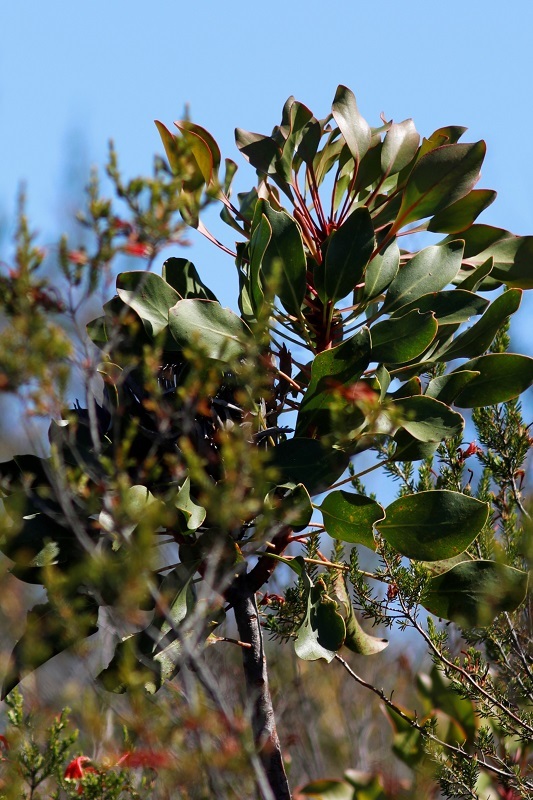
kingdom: Plantae
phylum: Tracheophyta
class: Magnoliopsida
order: Proteales
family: Proteaceae
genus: Protea
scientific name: Protea cynaroides
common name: King protea
